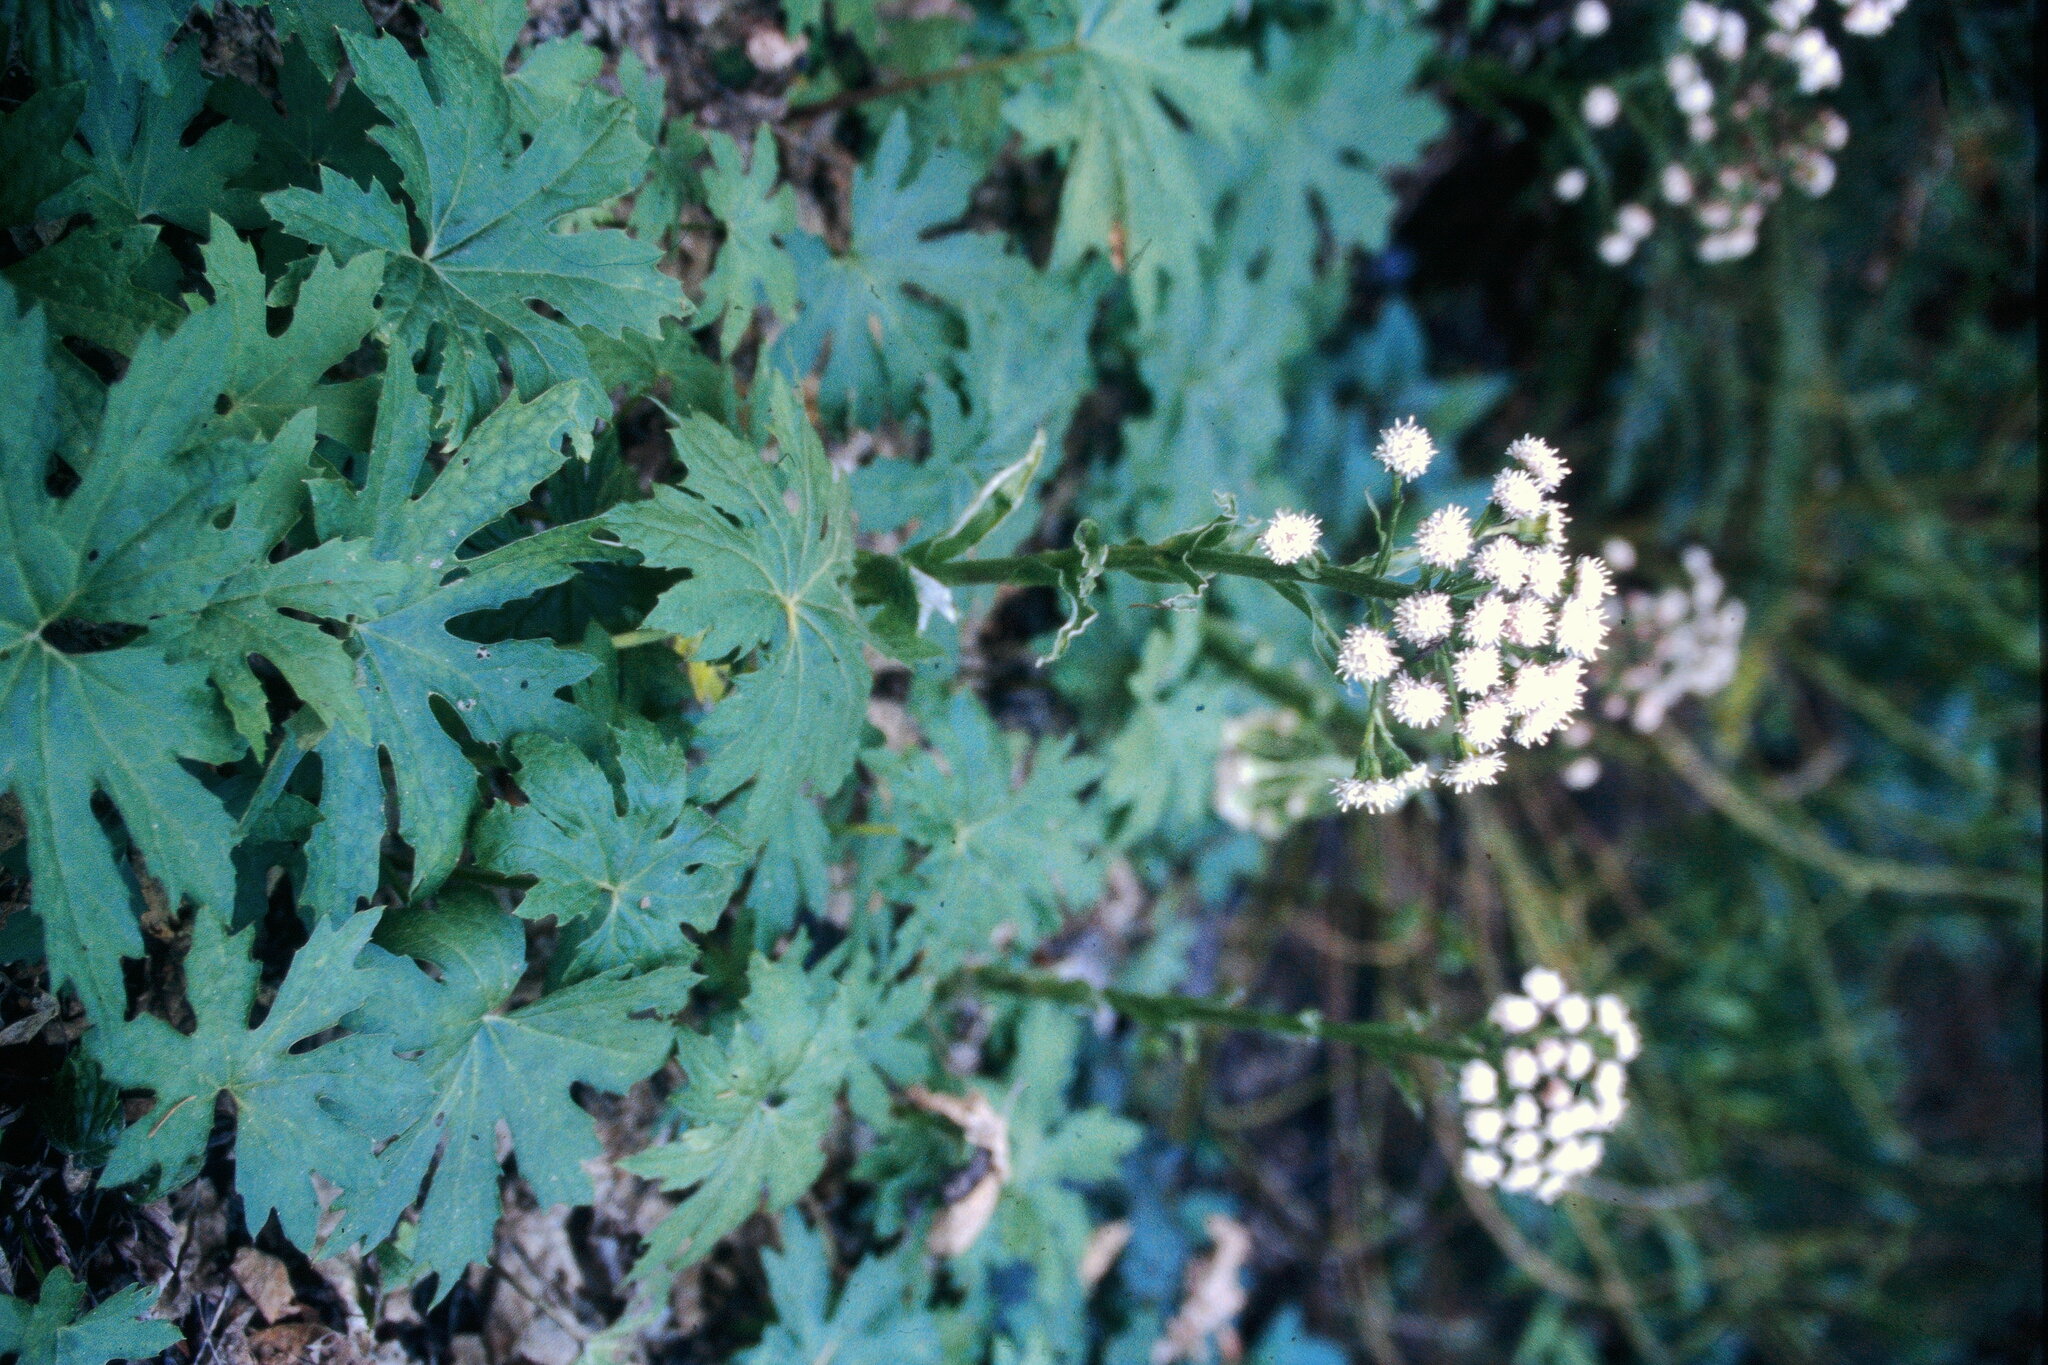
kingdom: Plantae
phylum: Tracheophyta
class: Magnoliopsida
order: Asterales
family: Asteraceae
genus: Petasites
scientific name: Petasites frigidus
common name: Arctic butterbur
